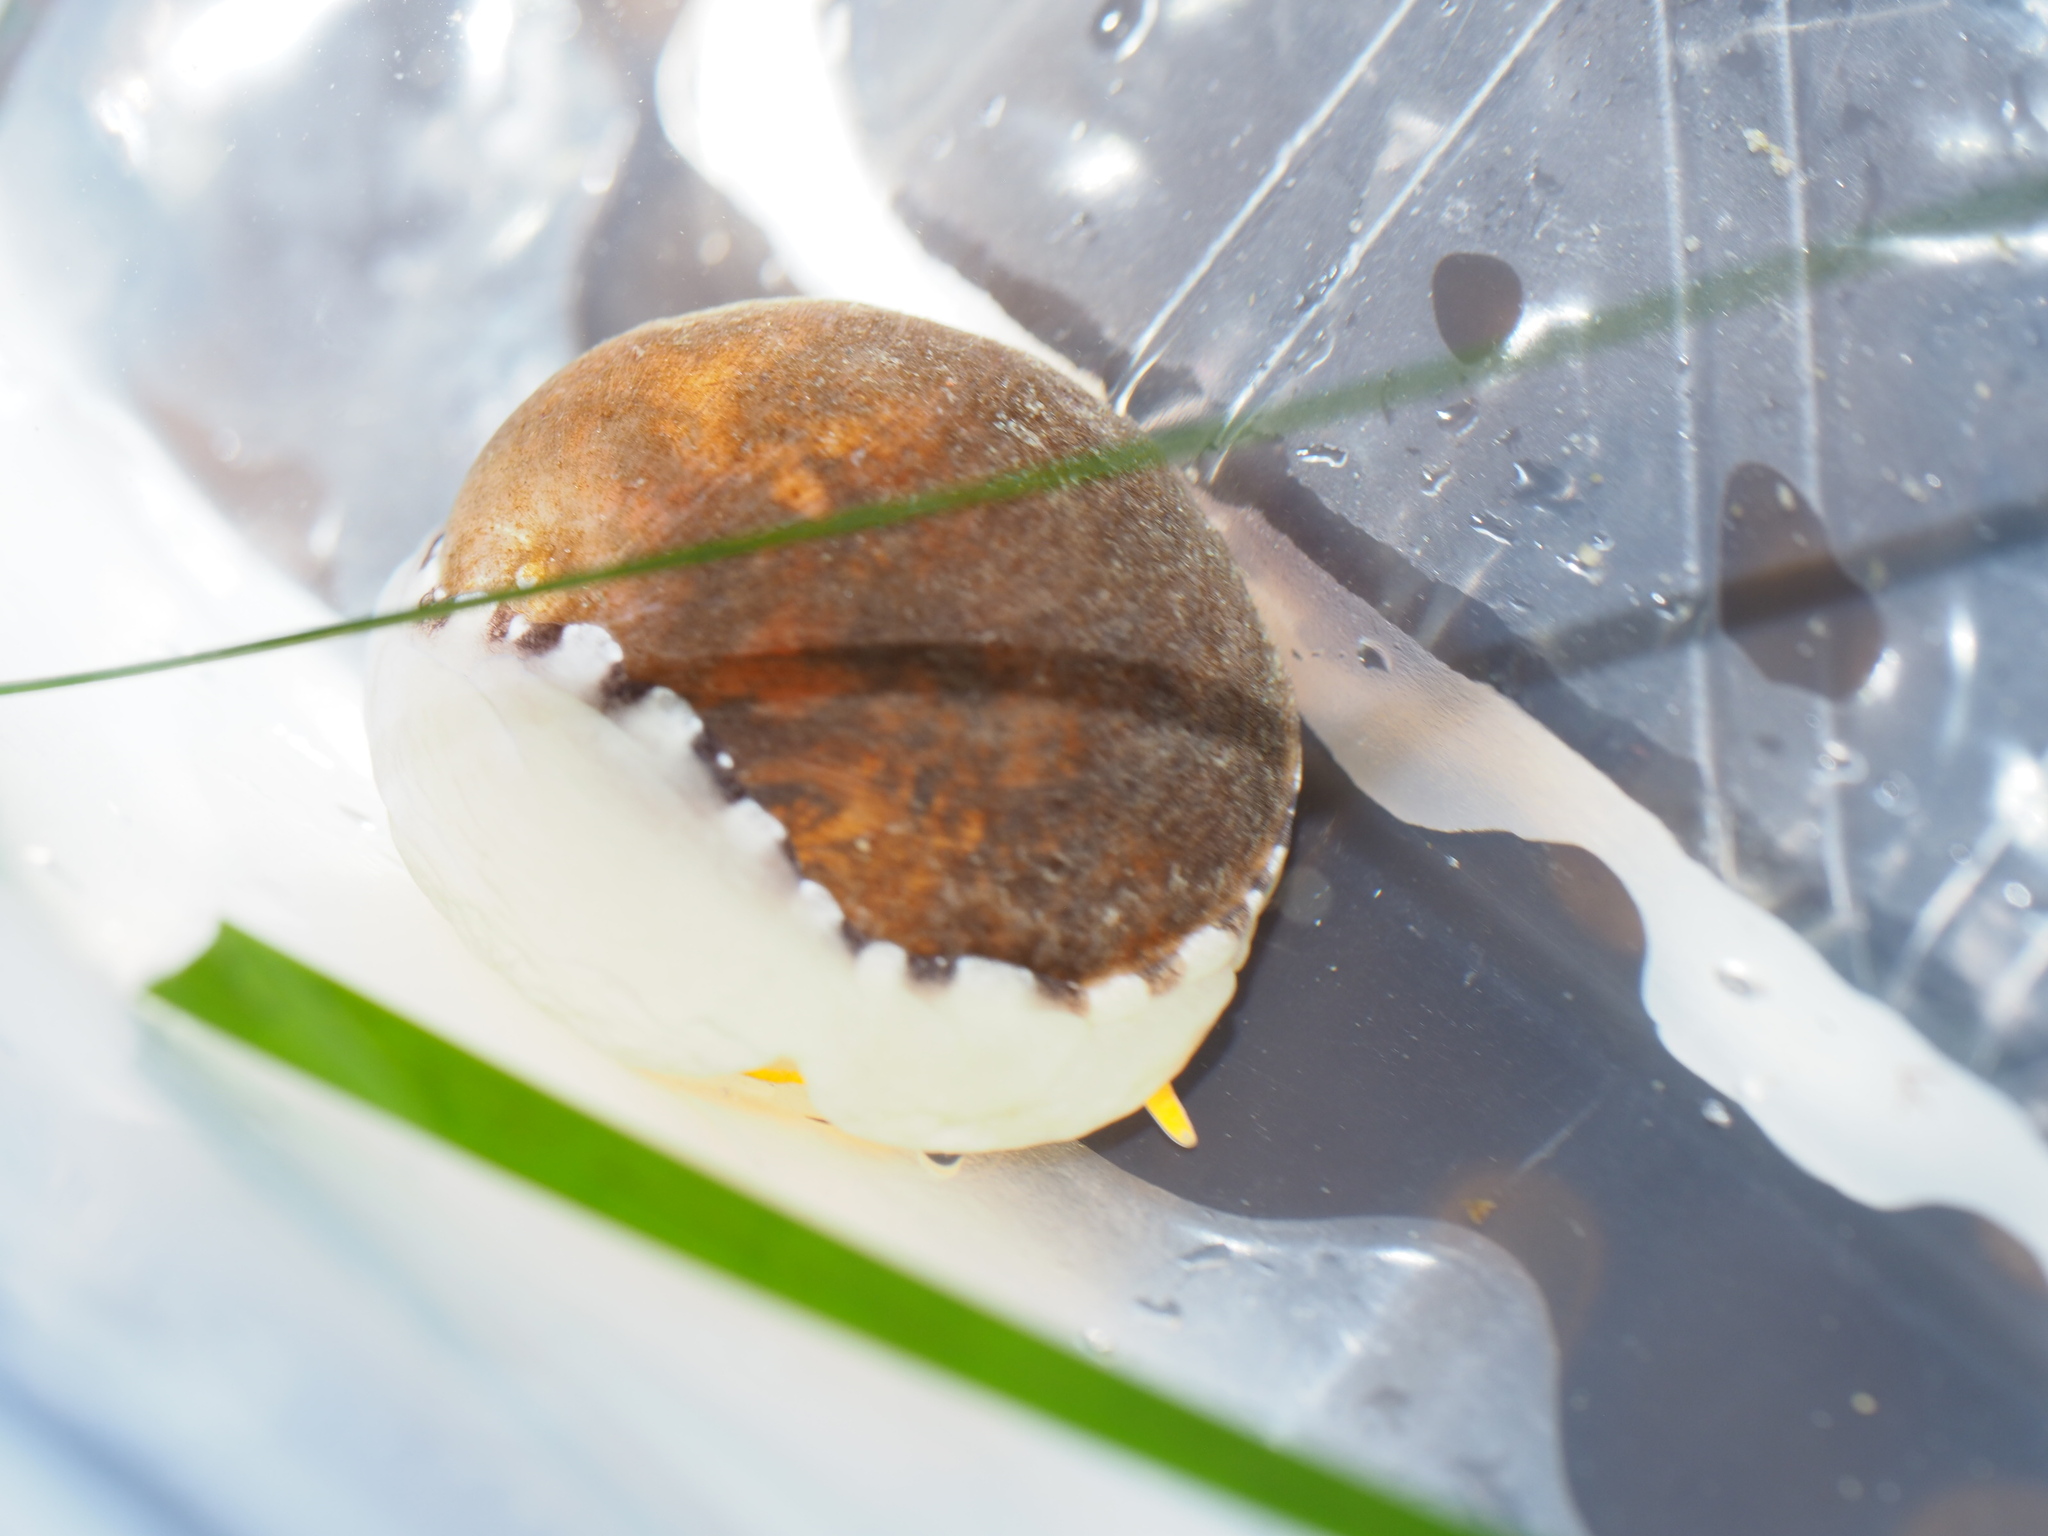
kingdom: Animalia
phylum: Mollusca
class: Gastropoda
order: Littorinimorpha
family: Velutinidae
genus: Limneria
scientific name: Limneria prolongata
